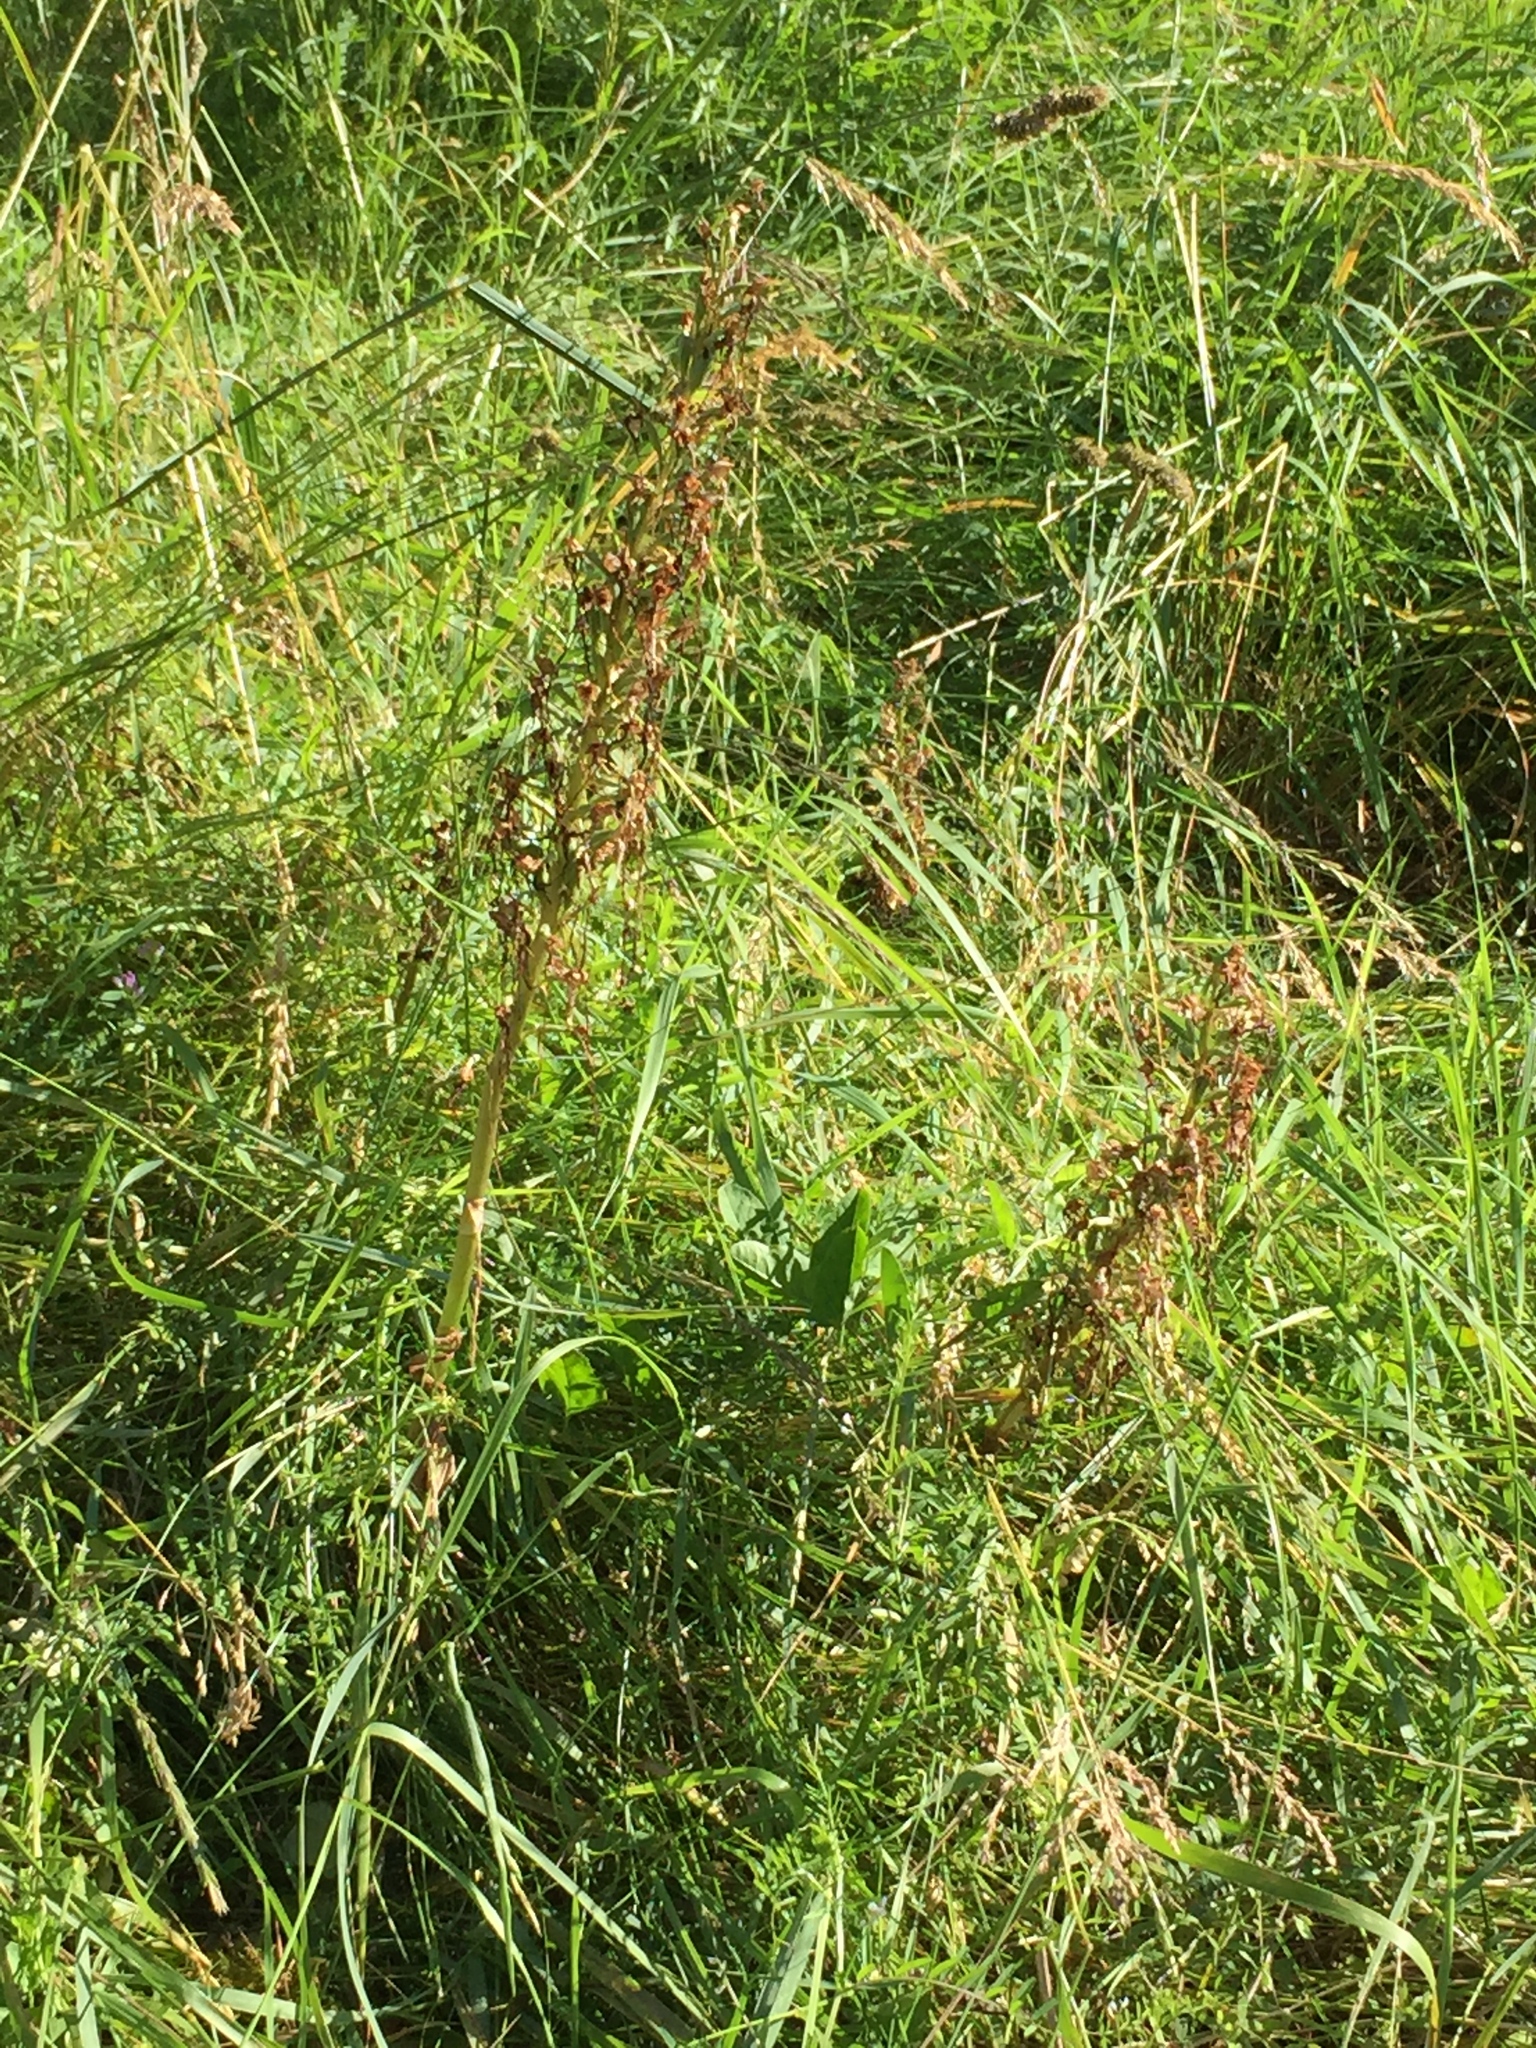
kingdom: Plantae
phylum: Tracheophyta
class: Liliopsida
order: Asparagales
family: Orchidaceae
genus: Himantoglossum
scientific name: Himantoglossum hircinum
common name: Lizard orchid
